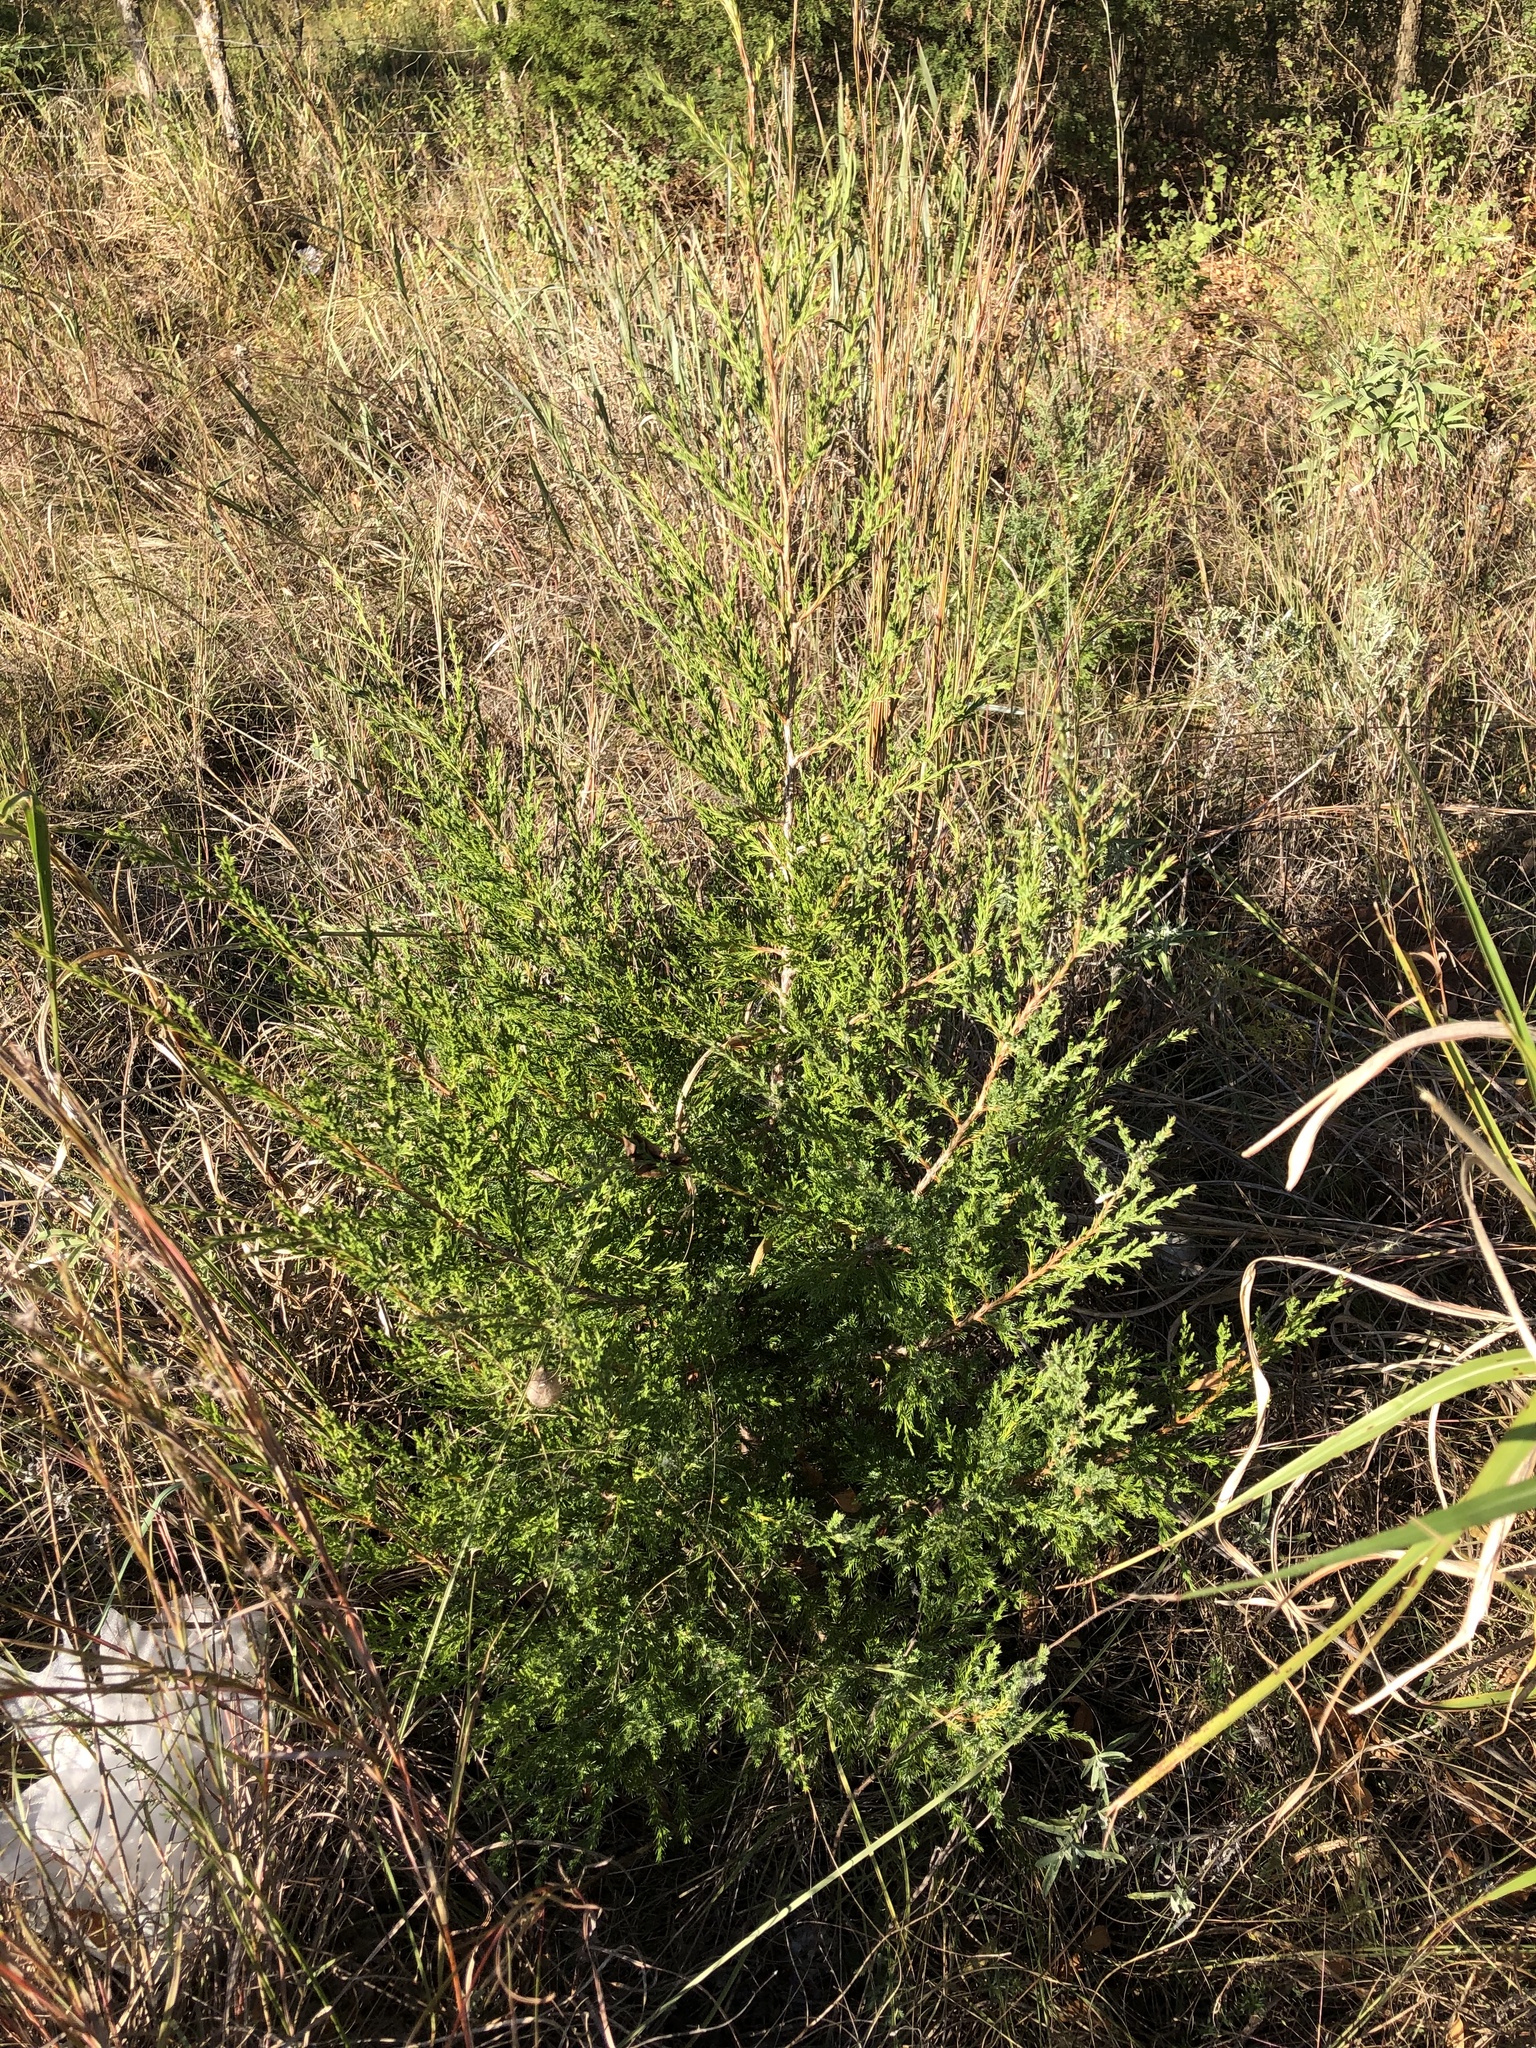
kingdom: Plantae
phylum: Tracheophyta
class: Pinopsida
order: Pinales
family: Cupressaceae
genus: Juniperus
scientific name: Juniperus virginiana
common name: Red juniper
